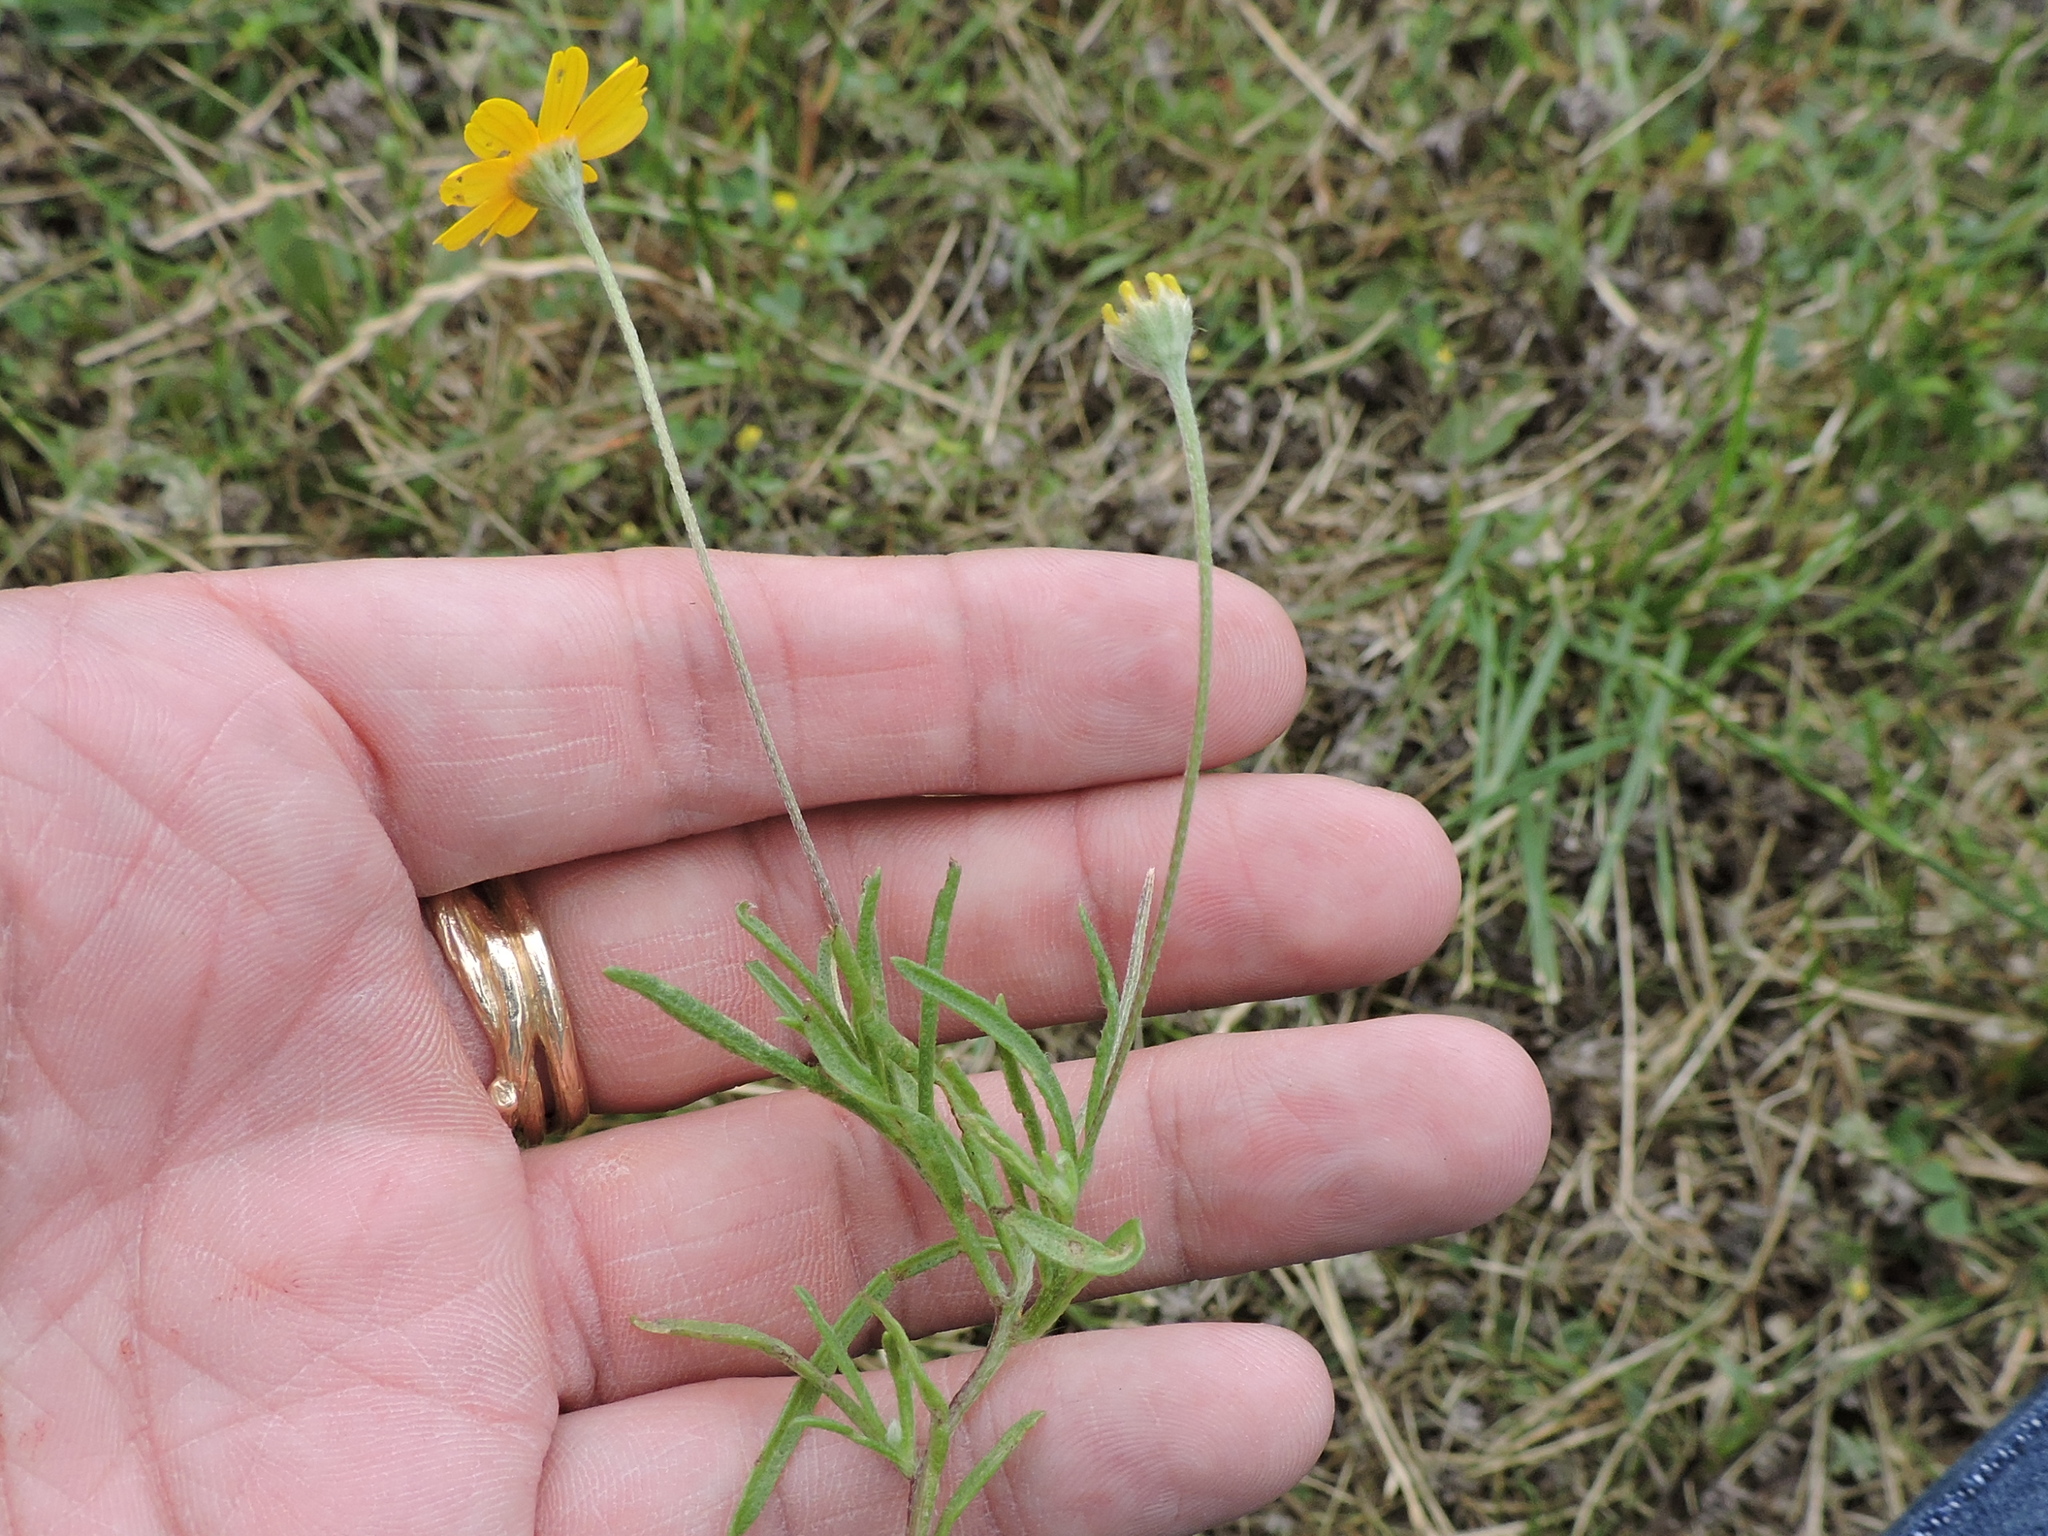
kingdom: Plantae
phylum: Tracheophyta
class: Magnoliopsida
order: Asterales
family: Asteraceae
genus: Tetraneuris
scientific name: Tetraneuris linearifolia
